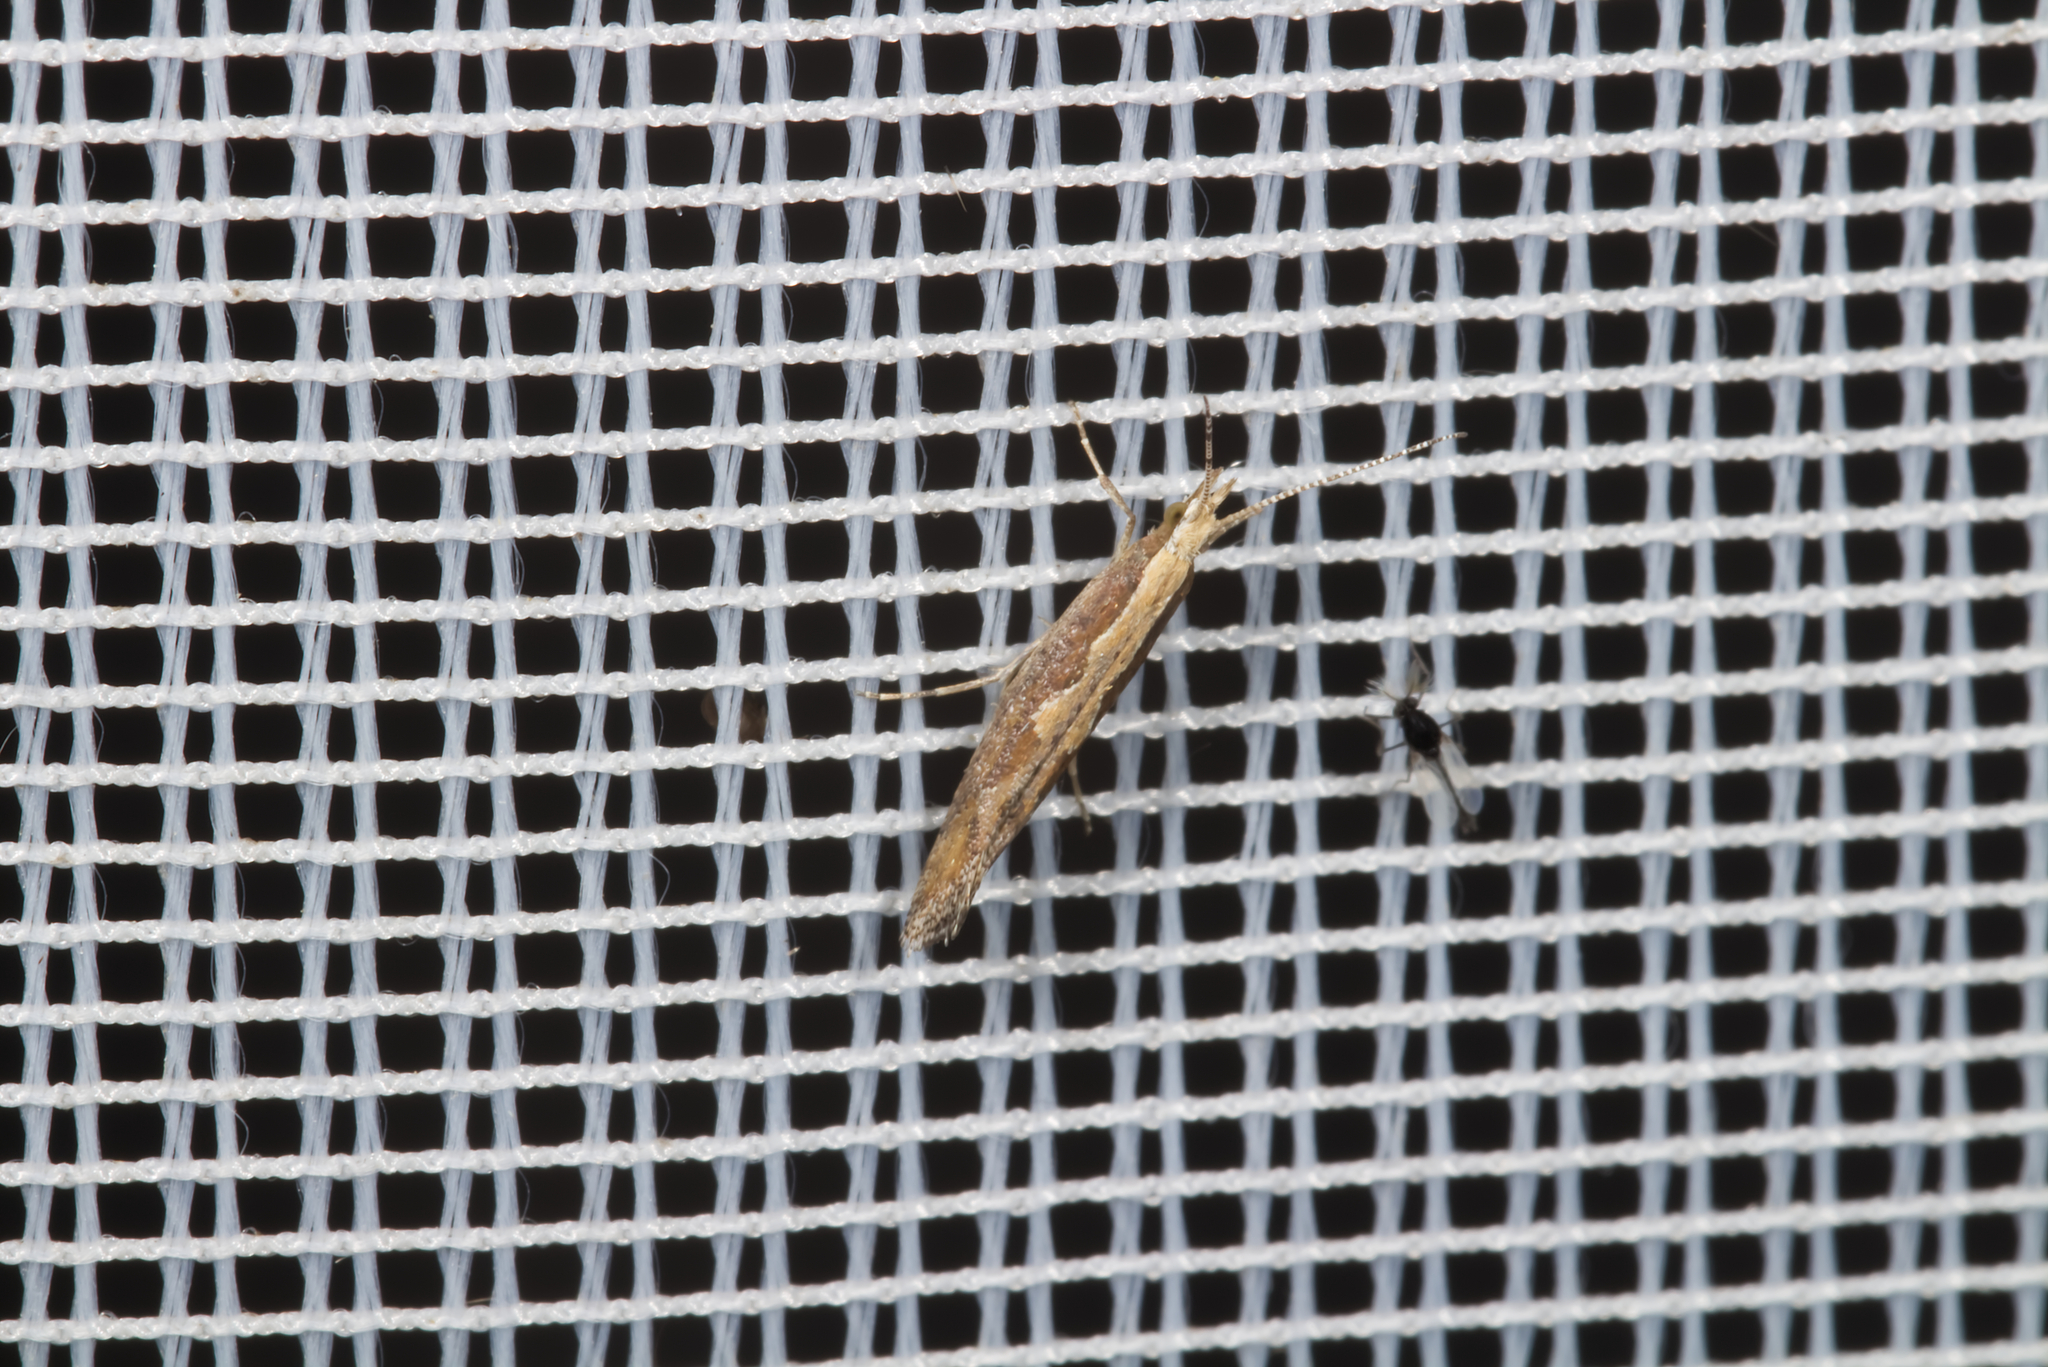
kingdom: Animalia
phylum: Arthropoda
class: Insecta
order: Lepidoptera
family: Plutellidae
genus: Plutella
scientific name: Plutella xylostella
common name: Diamond-back moth
